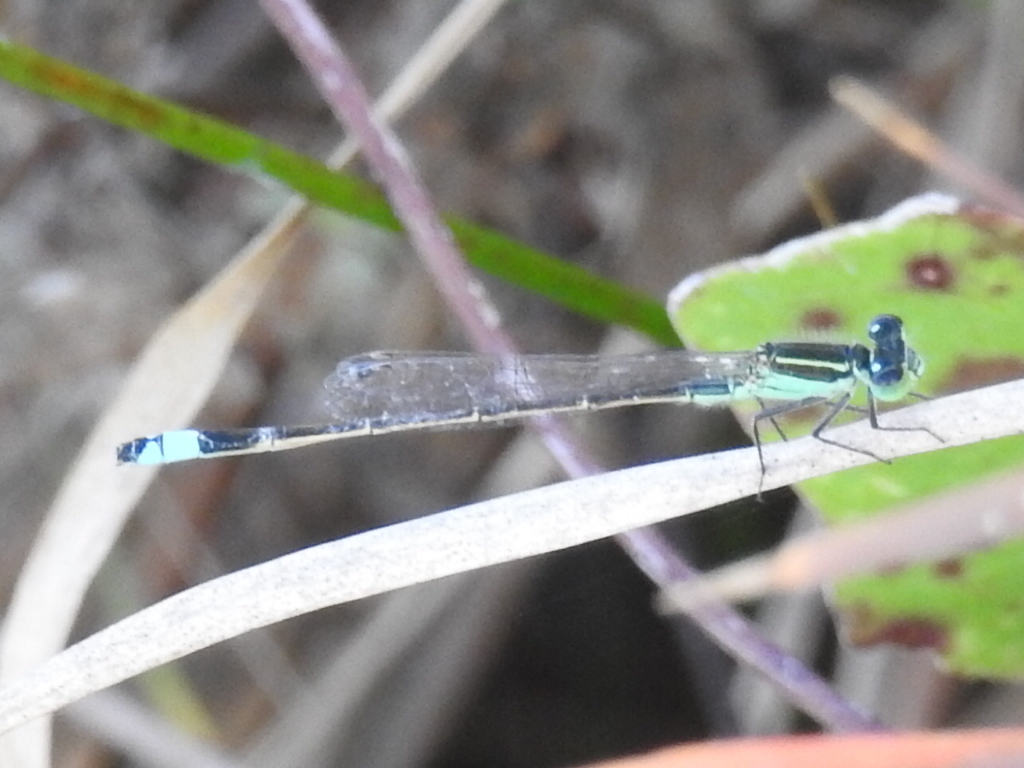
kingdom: Animalia
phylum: Arthropoda
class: Insecta
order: Odonata
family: Coenagrionidae
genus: Ischnura
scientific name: Ischnura ramburii
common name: Rambur's forktail
